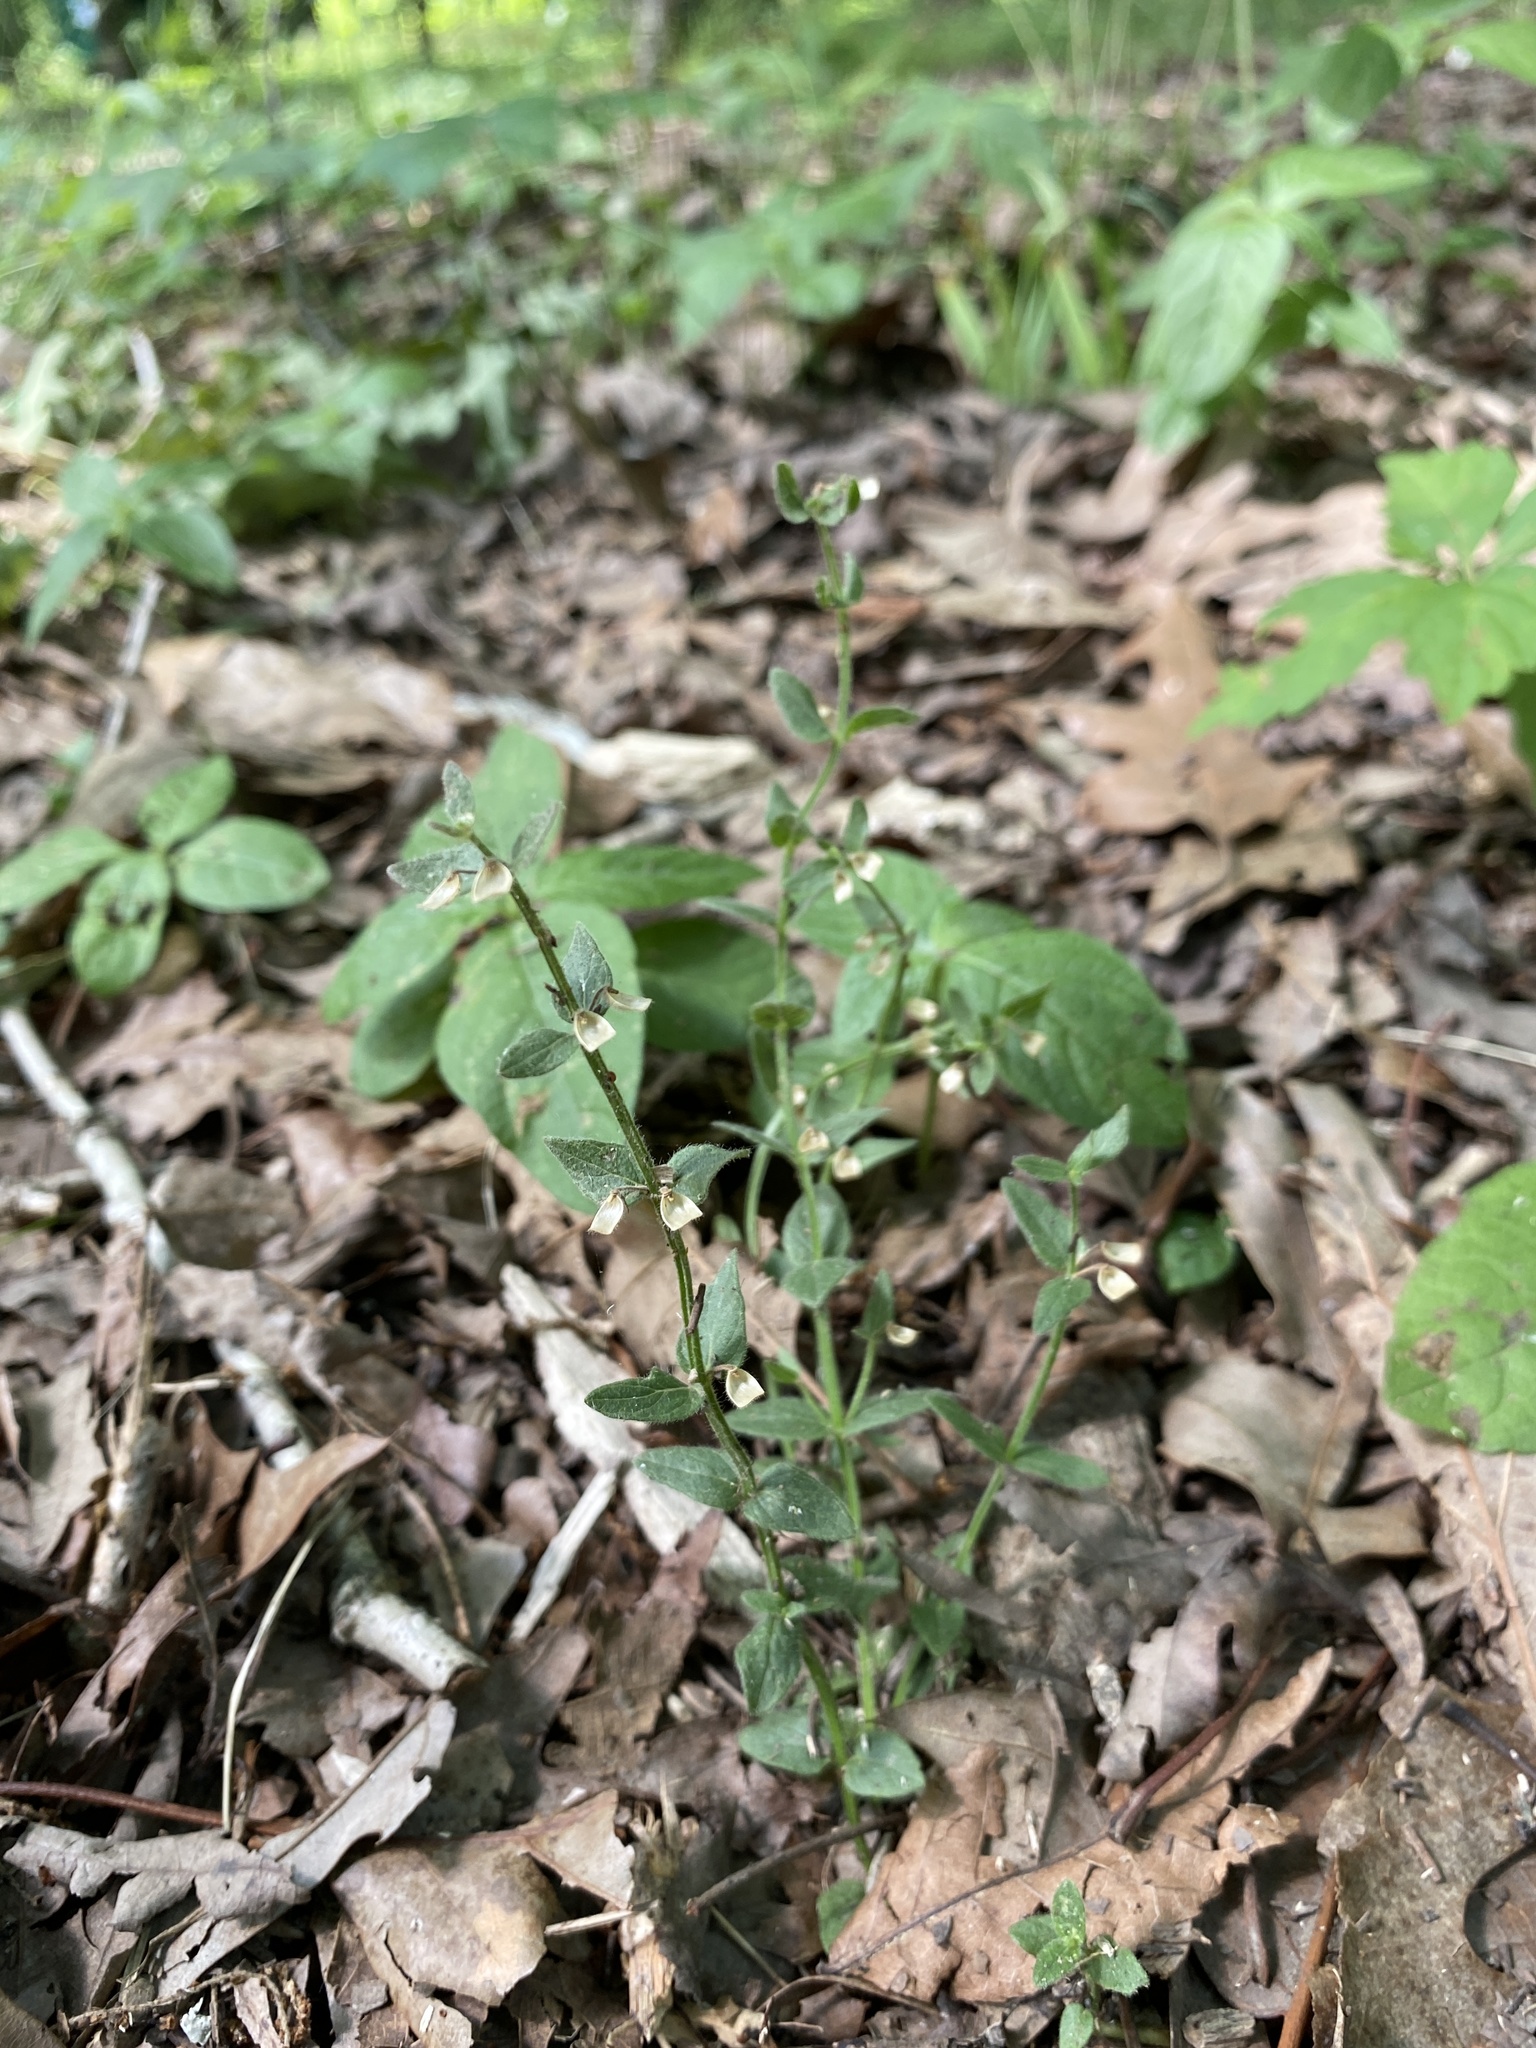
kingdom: Plantae
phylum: Tracheophyta
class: Magnoliopsida
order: Lamiales
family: Lamiaceae
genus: Scutellaria
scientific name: Scutellaria parvula
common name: Little scullcap
